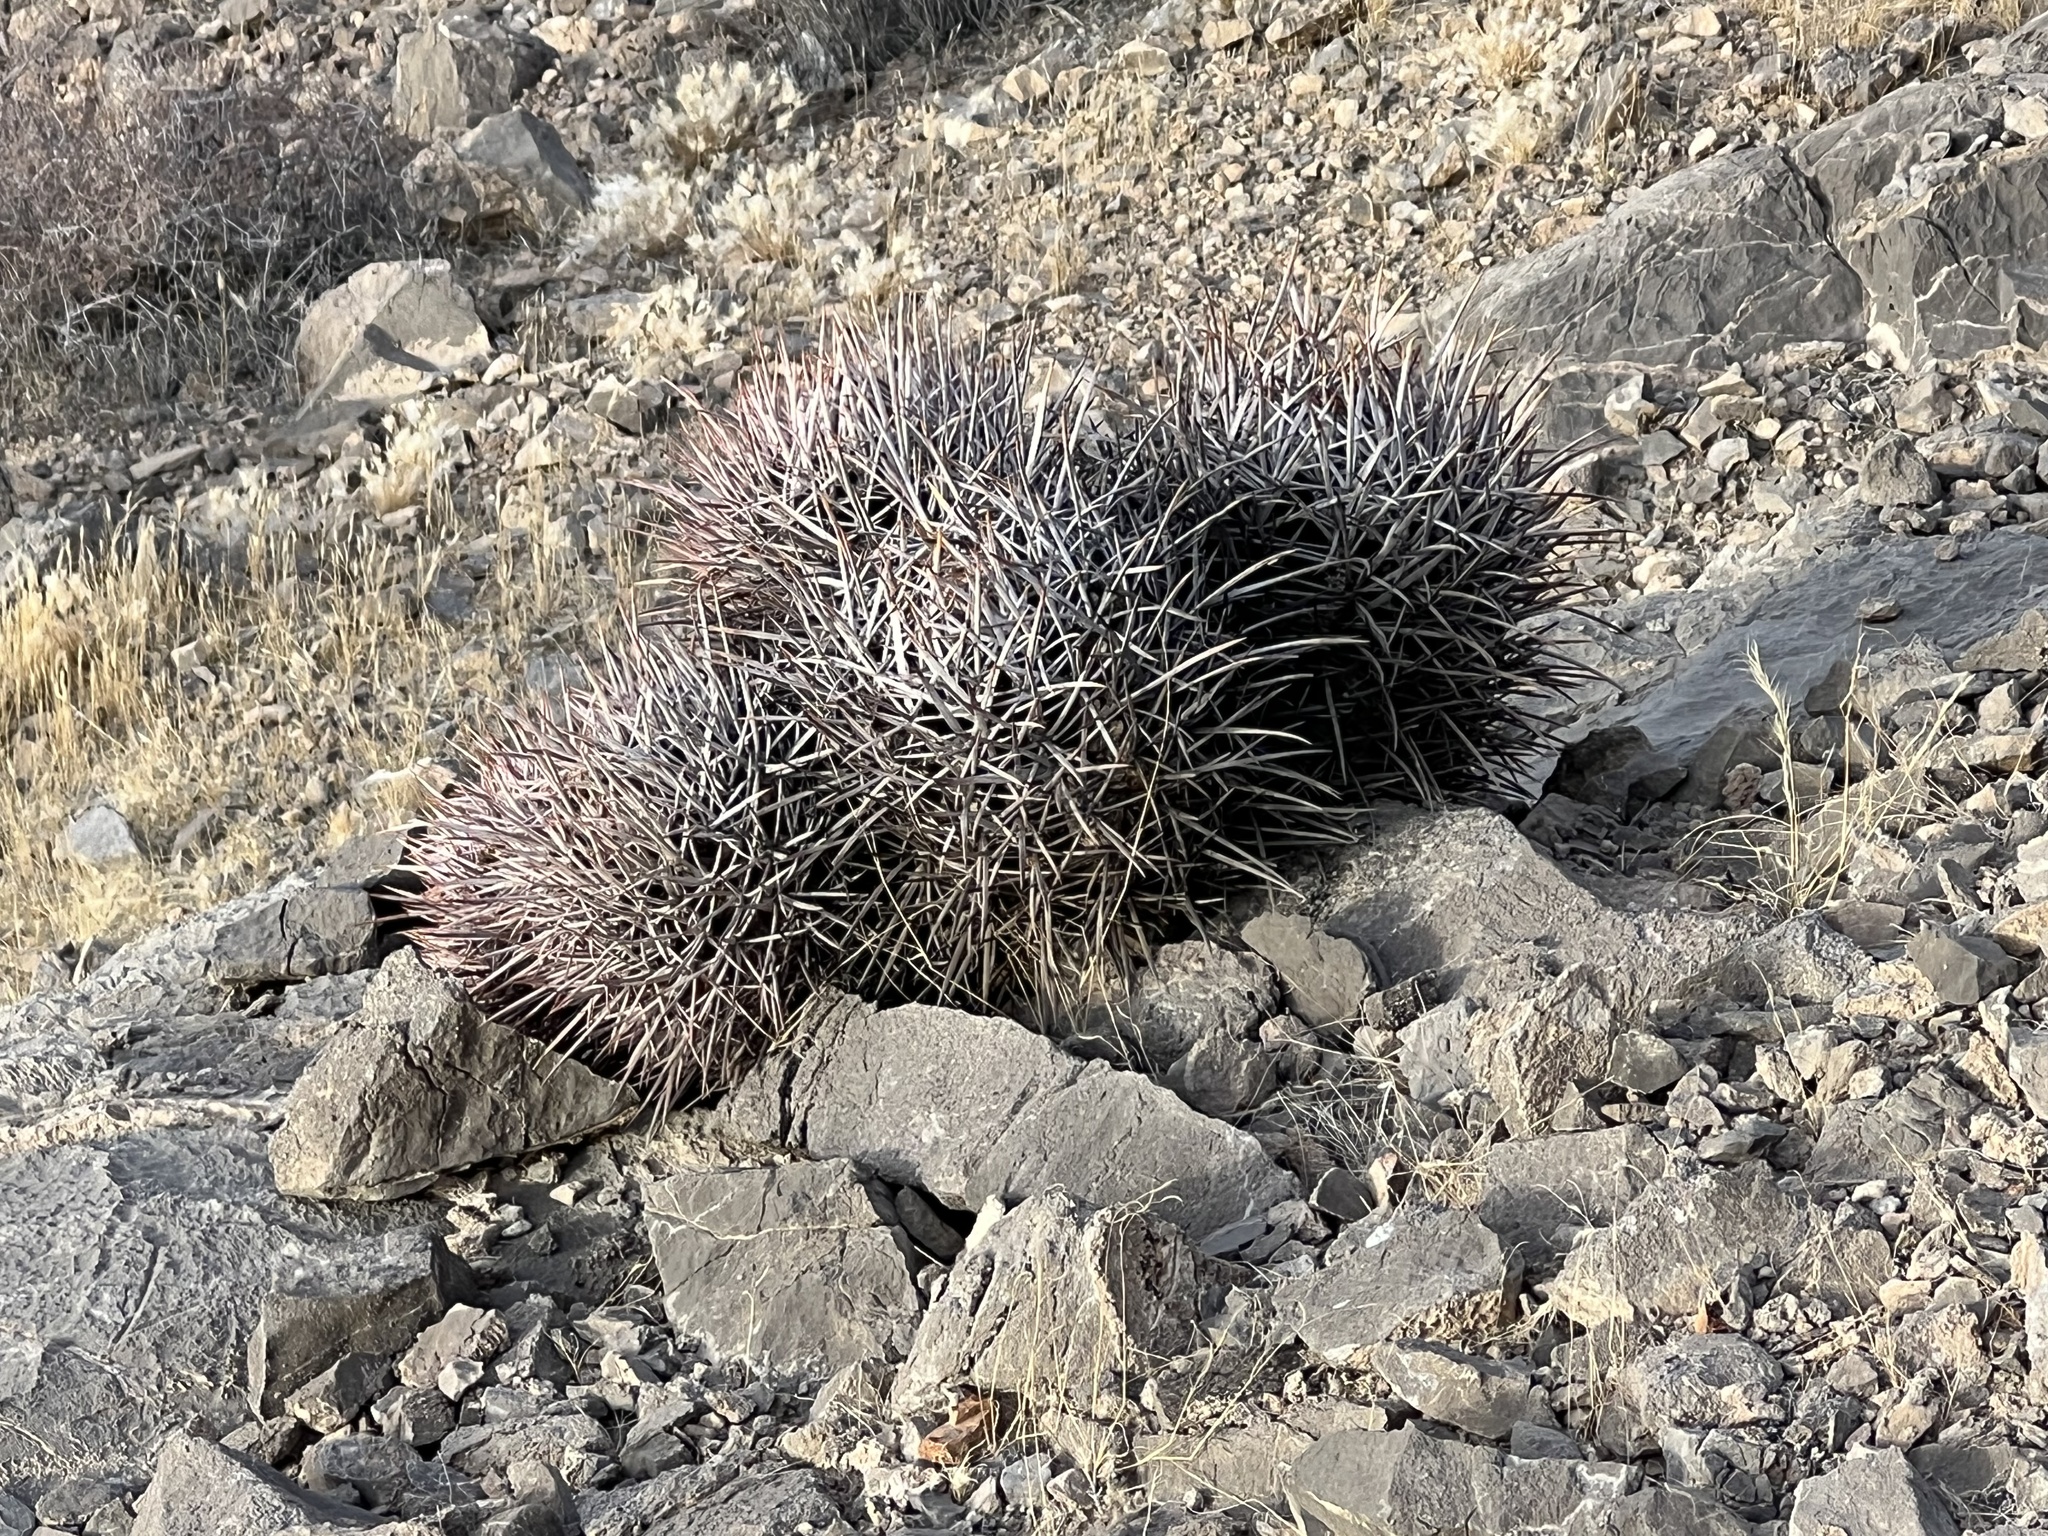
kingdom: Plantae
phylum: Tracheophyta
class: Magnoliopsida
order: Caryophyllales
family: Cactaceae
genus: Echinocactus
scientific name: Echinocactus polycephalus
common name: Cottontop cactus
